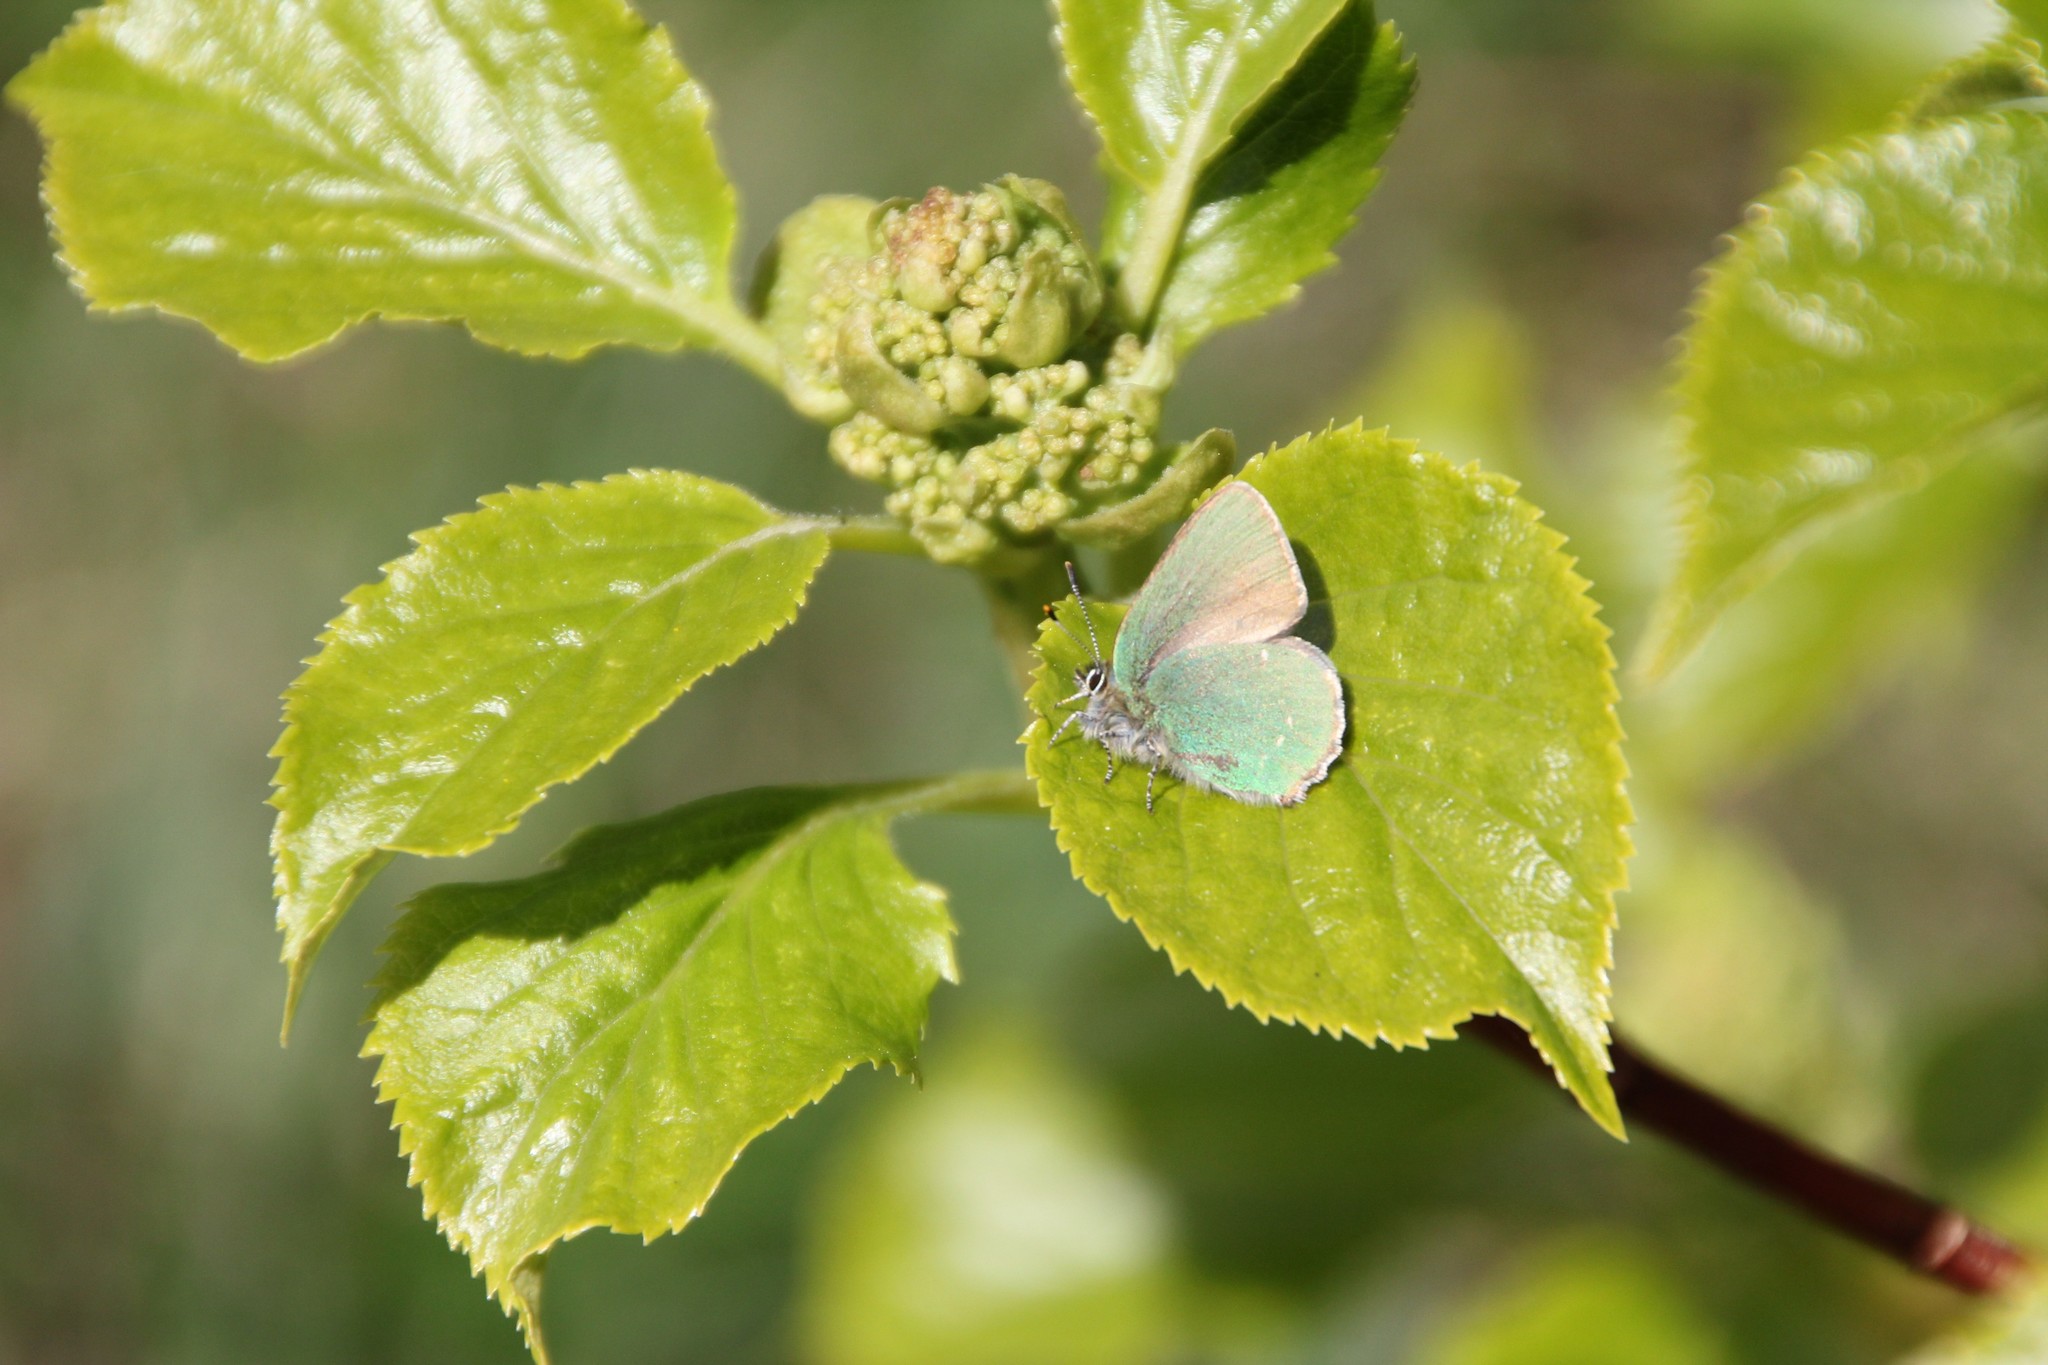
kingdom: Animalia
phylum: Arthropoda
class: Insecta
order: Lepidoptera
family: Lycaenidae
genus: Callophrys
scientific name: Callophrys rubi
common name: Green hairstreak
